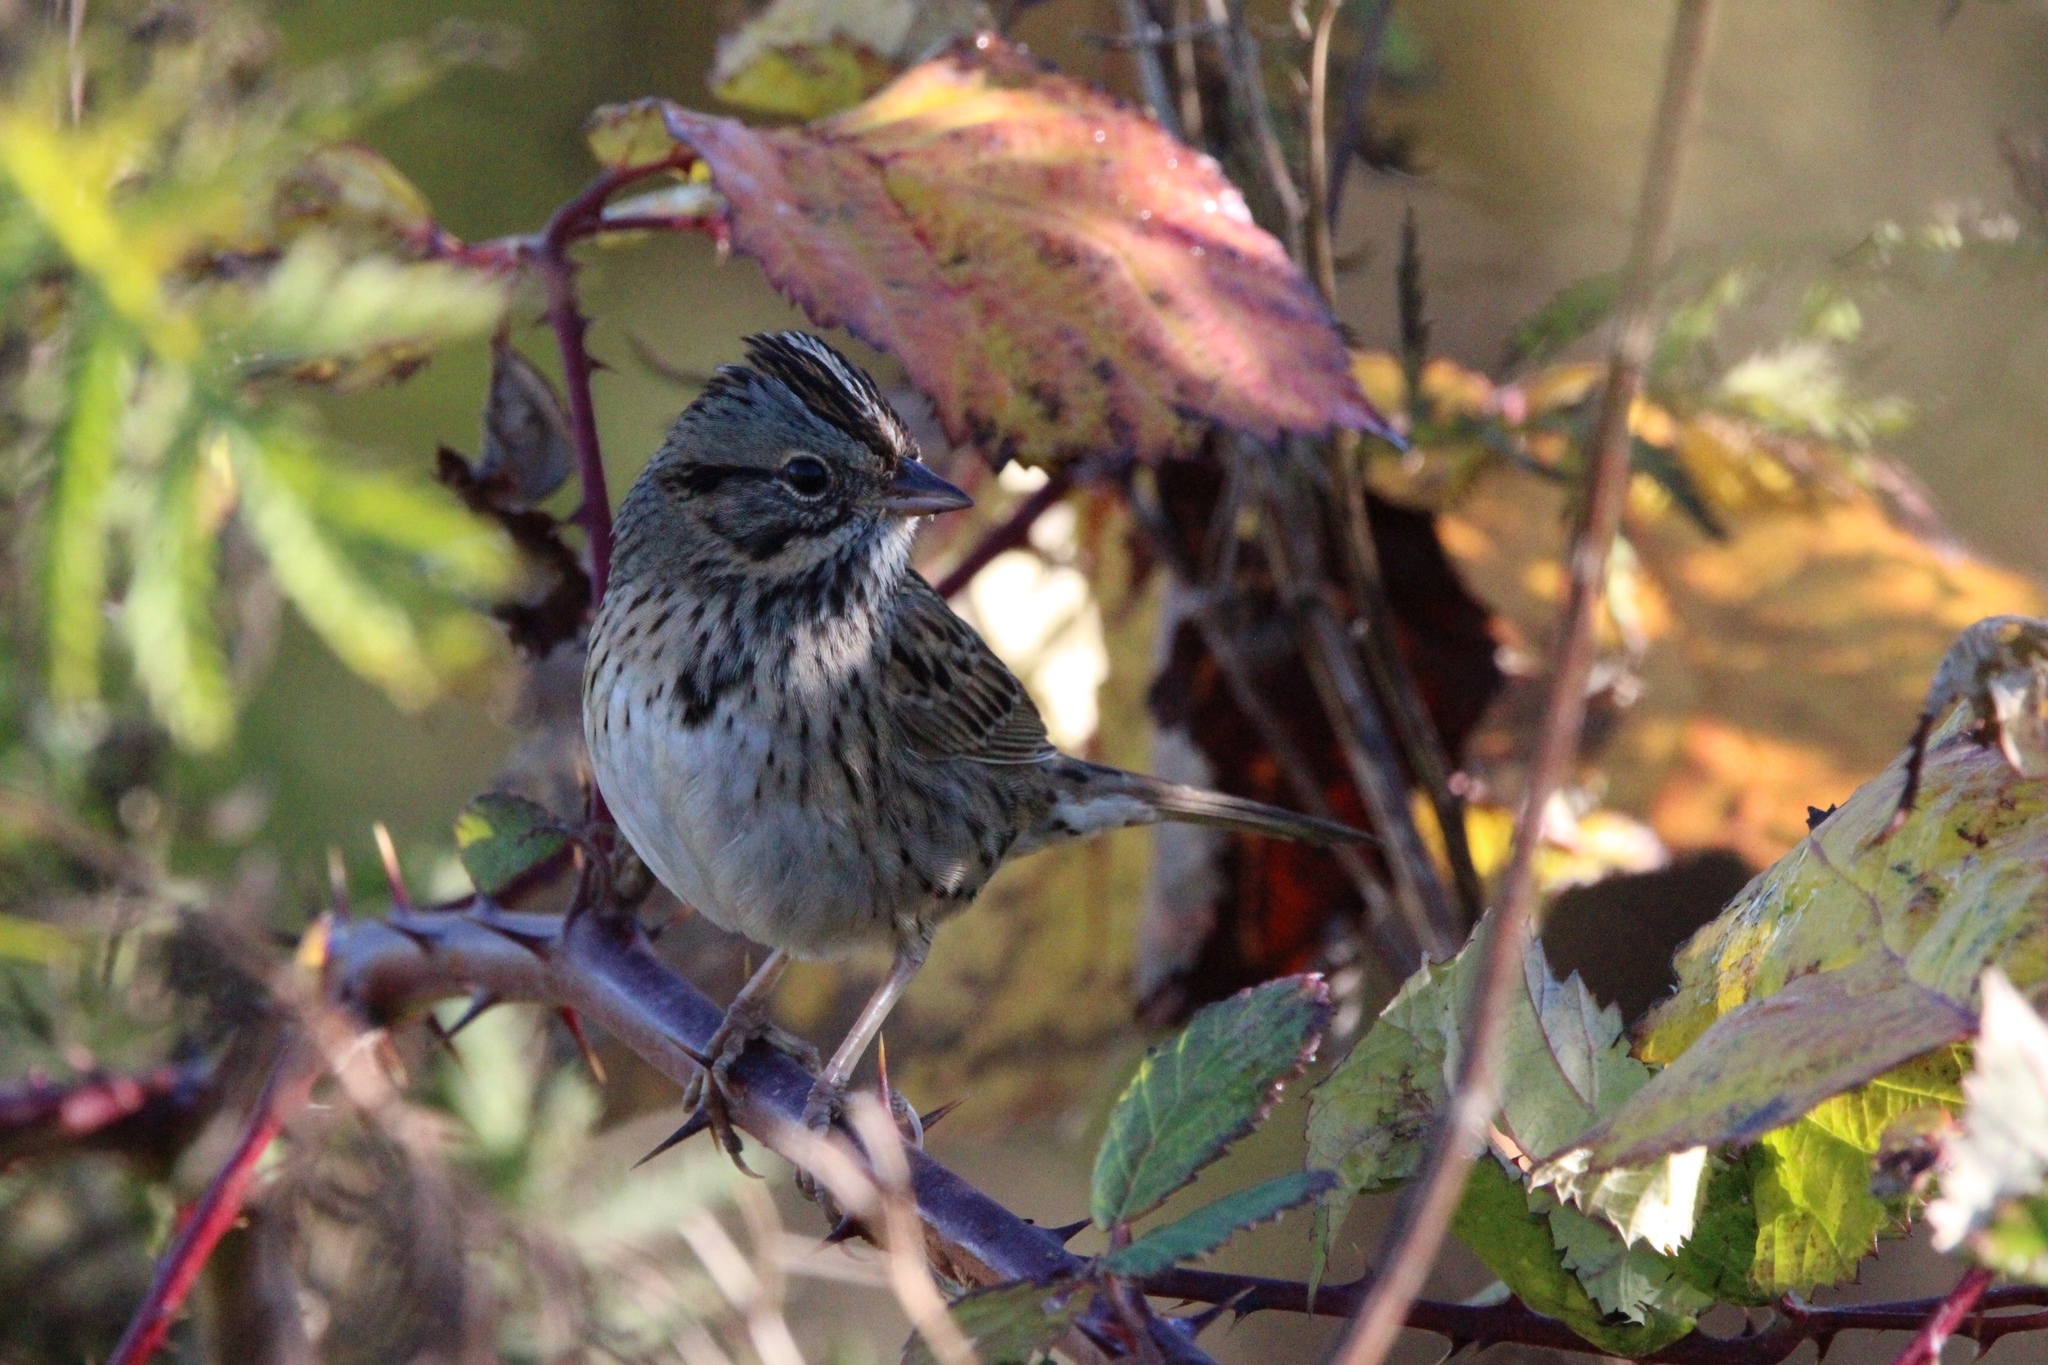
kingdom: Animalia
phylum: Chordata
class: Aves
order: Passeriformes
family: Passerellidae
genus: Melospiza
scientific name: Melospiza lincolnii
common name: Lincoln's sparrow
